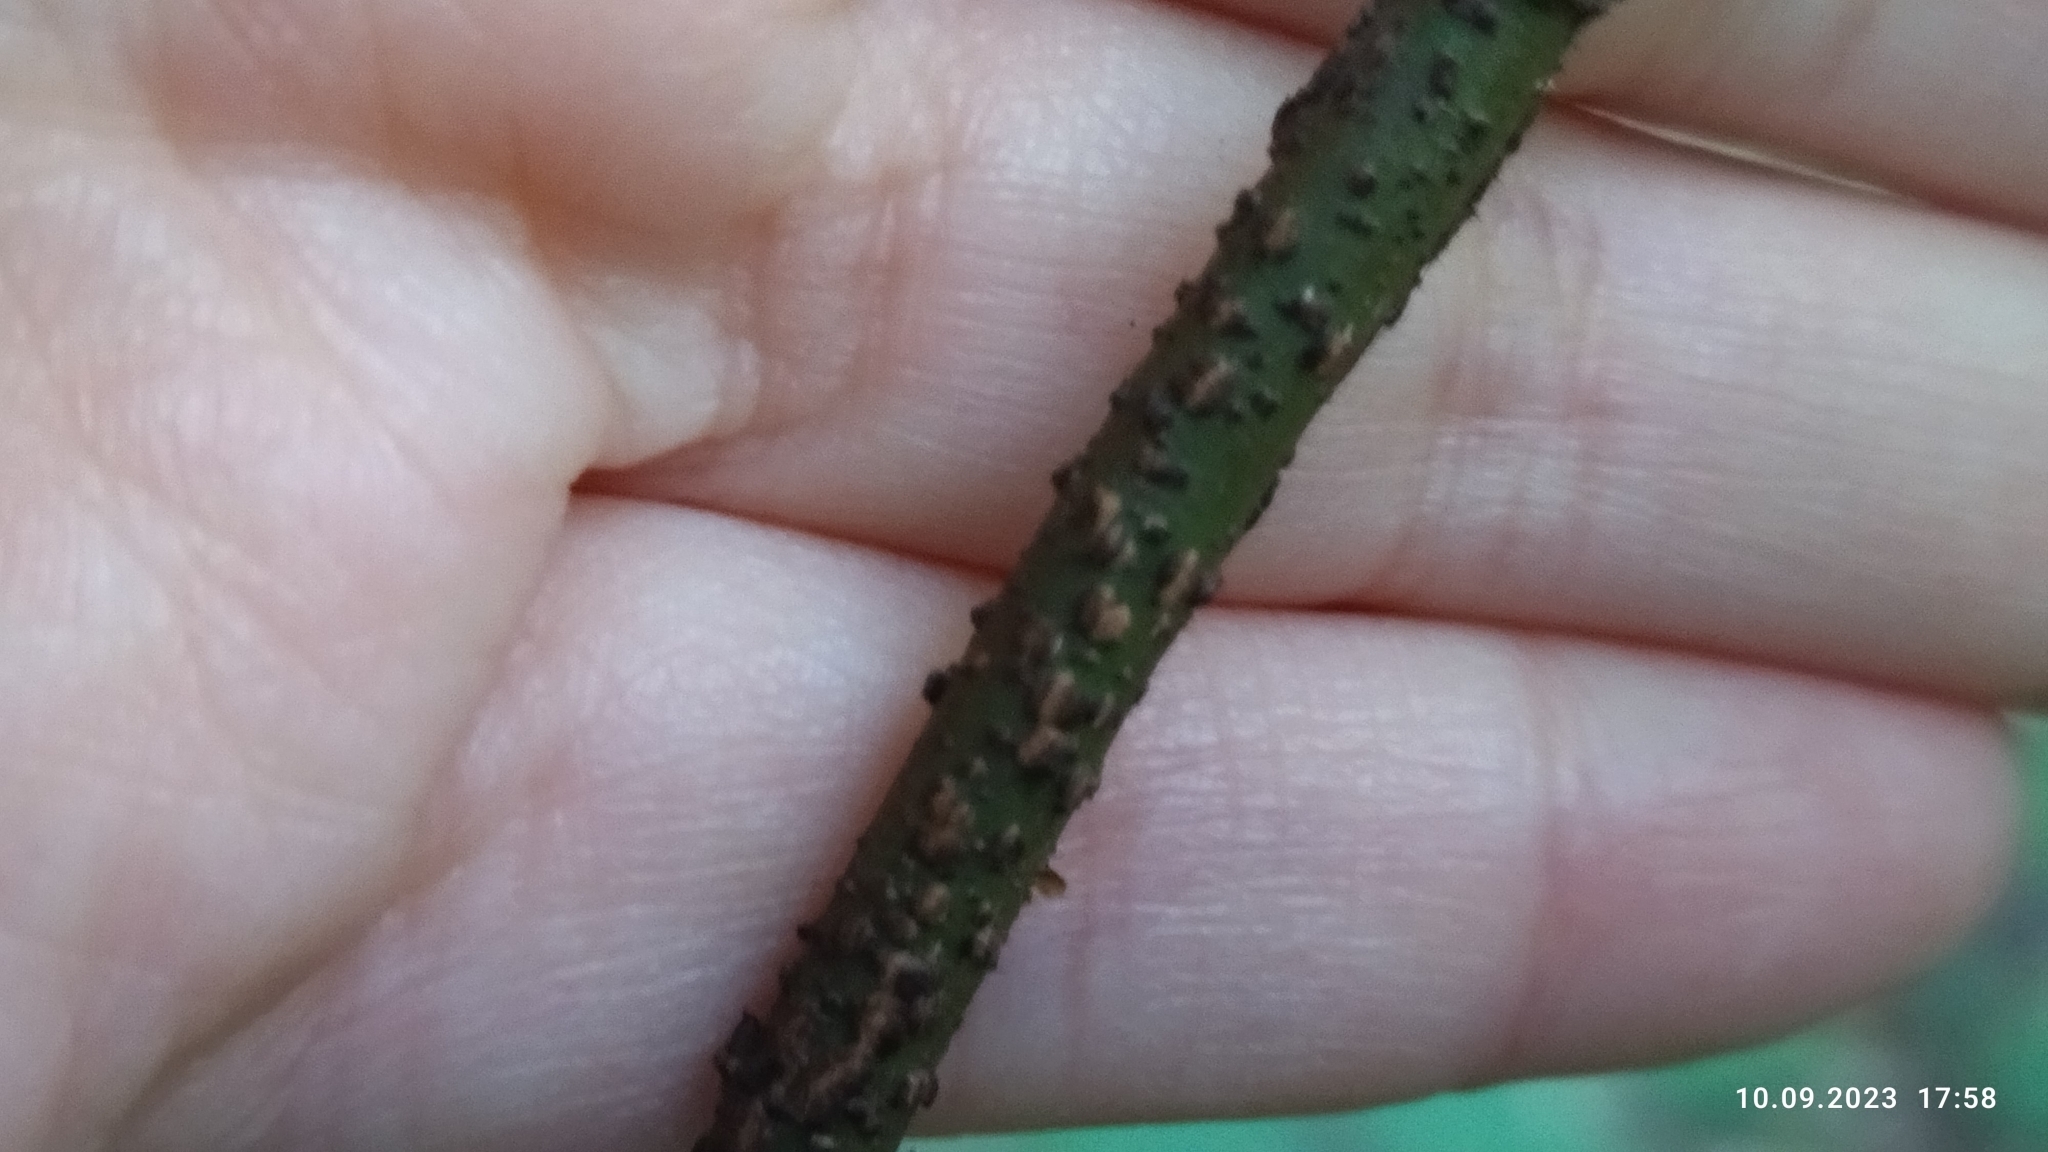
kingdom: Plantae
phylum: Tracheophyta
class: Magnoliopsida
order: Celastrales
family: Celastraceae
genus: Euonymus
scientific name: Euonymus verrucosus
